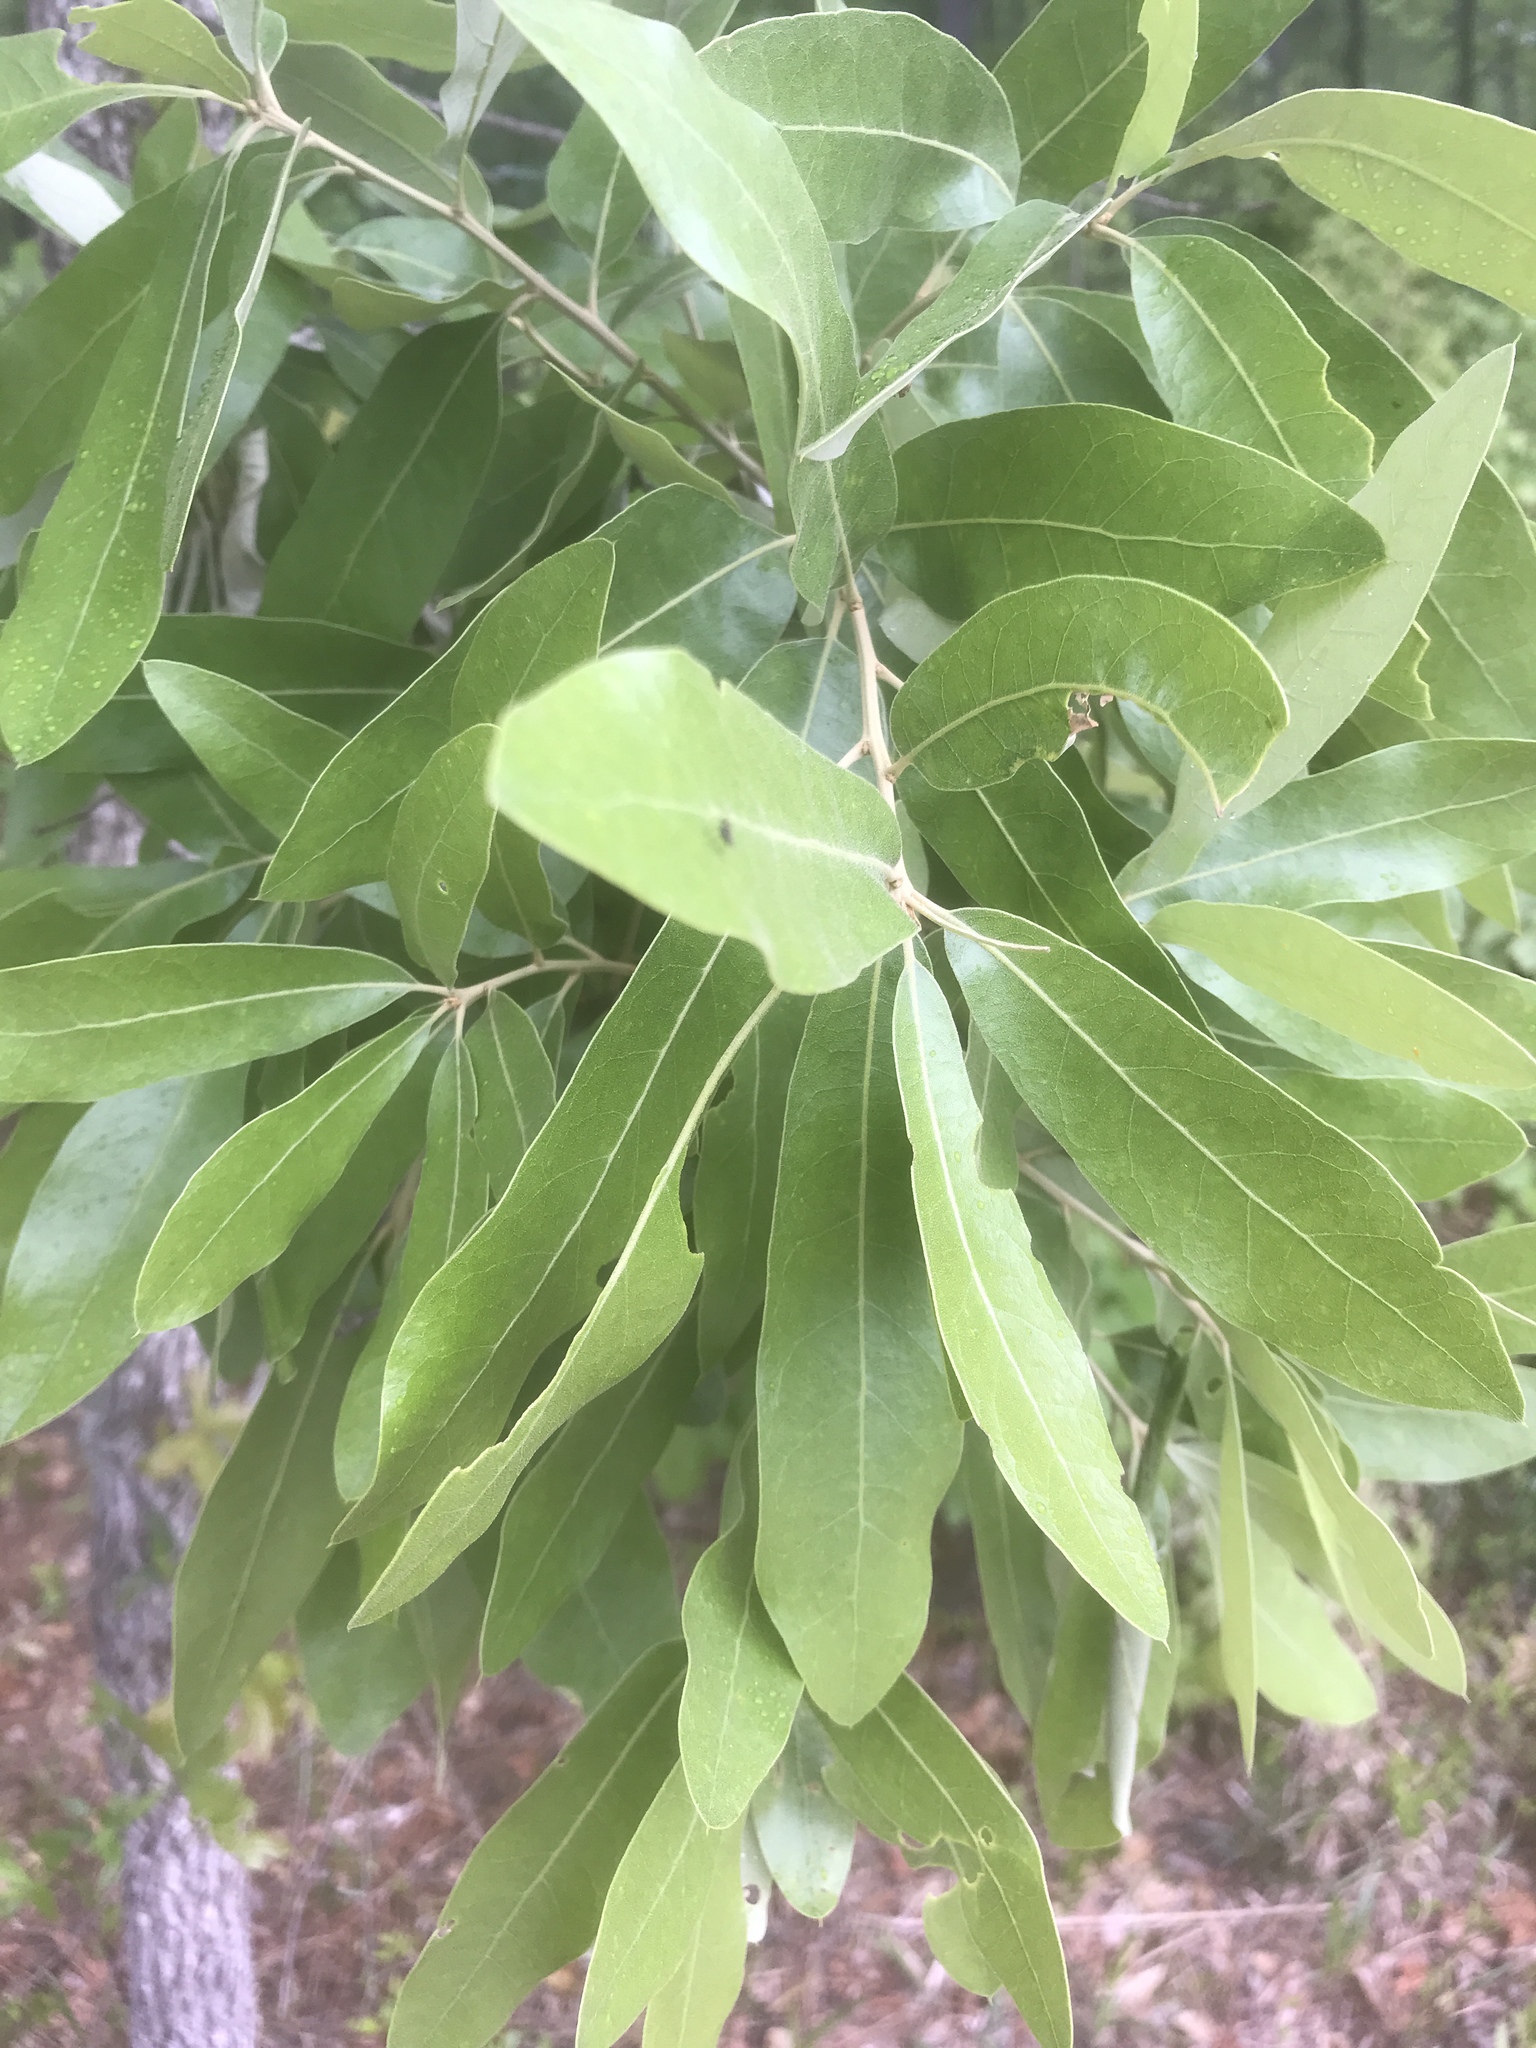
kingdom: Plantae
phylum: Tracheophyta
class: Magnoliopsida
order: Fagales
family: Fagaceae
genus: Quercus
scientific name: Quercus incana
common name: Bluejack oak
